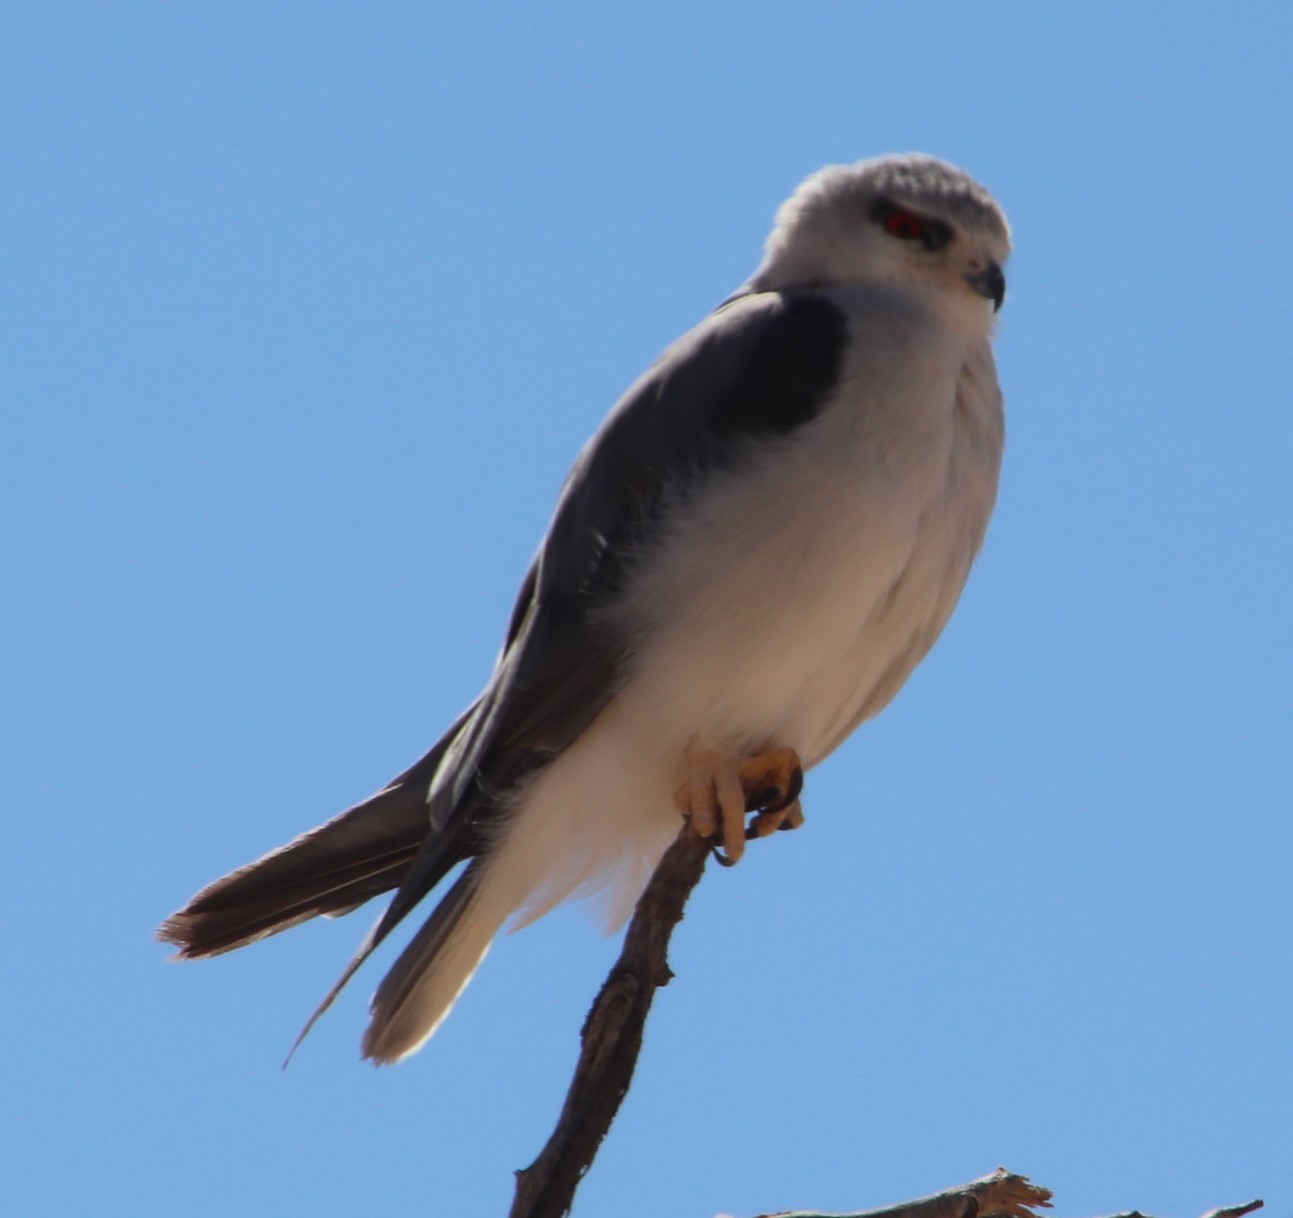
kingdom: Animalia
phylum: Chordata
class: Aves
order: Accipitriformes
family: Accipitridae
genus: Elanus
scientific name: Elanus caeruleus
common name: Black-winged kite
